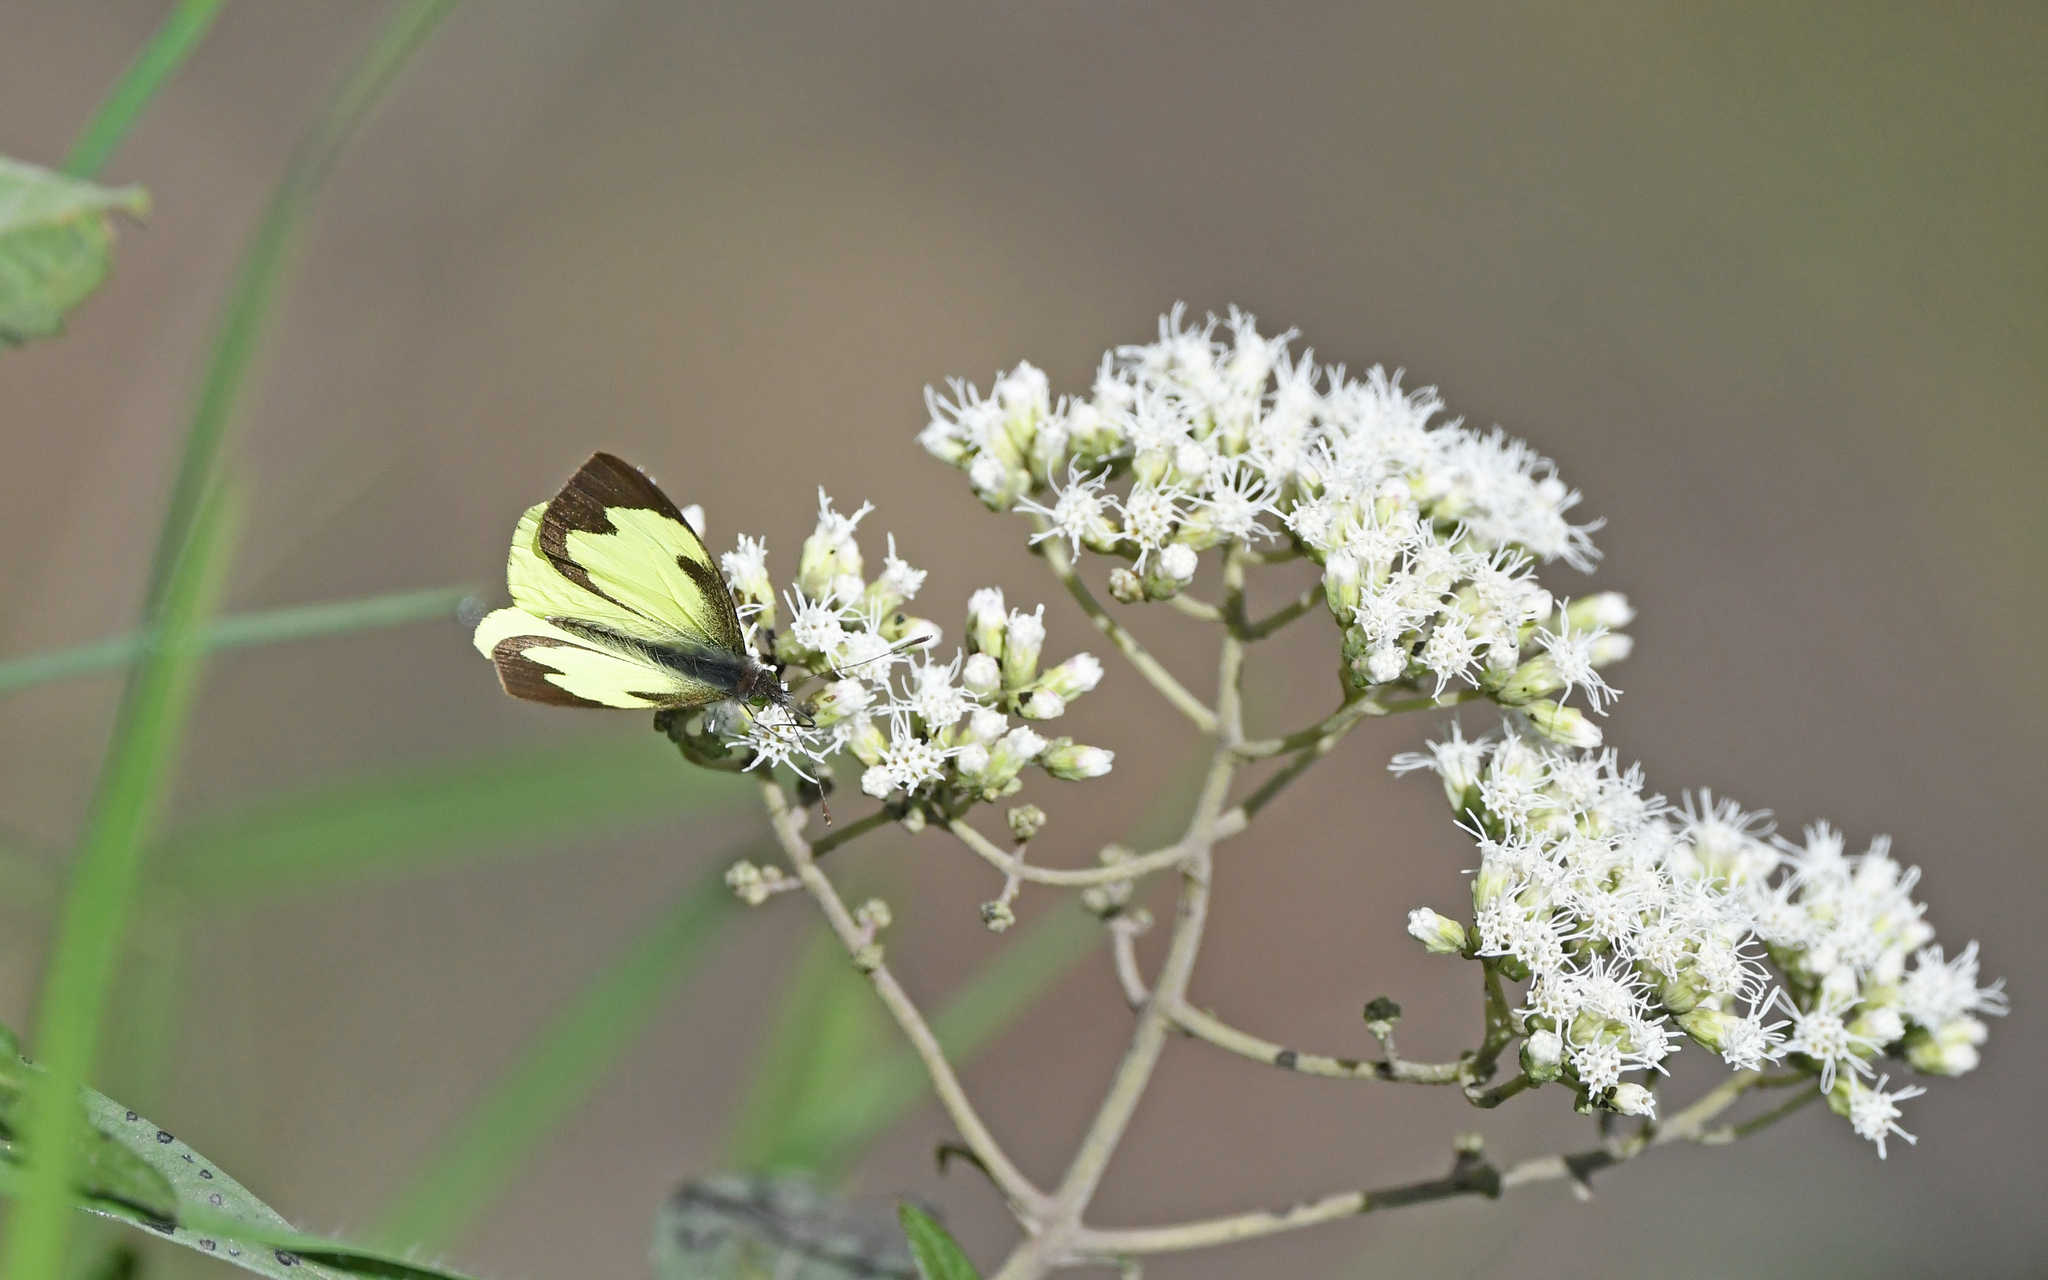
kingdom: Animalia
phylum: Arthropoda
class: Insecta
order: Lepidoptera
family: Pieridae
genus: Leptophobia
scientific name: Leptophobia eleone
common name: Silky wanderer
